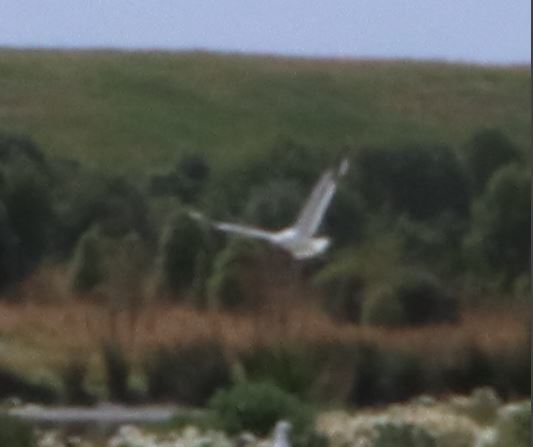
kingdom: Animalia
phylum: Chordata
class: Aves
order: Charadriiformes
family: Laridae
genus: Chroicocephalus
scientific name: Chroicocephalus novaehollandiae
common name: Silver gull
